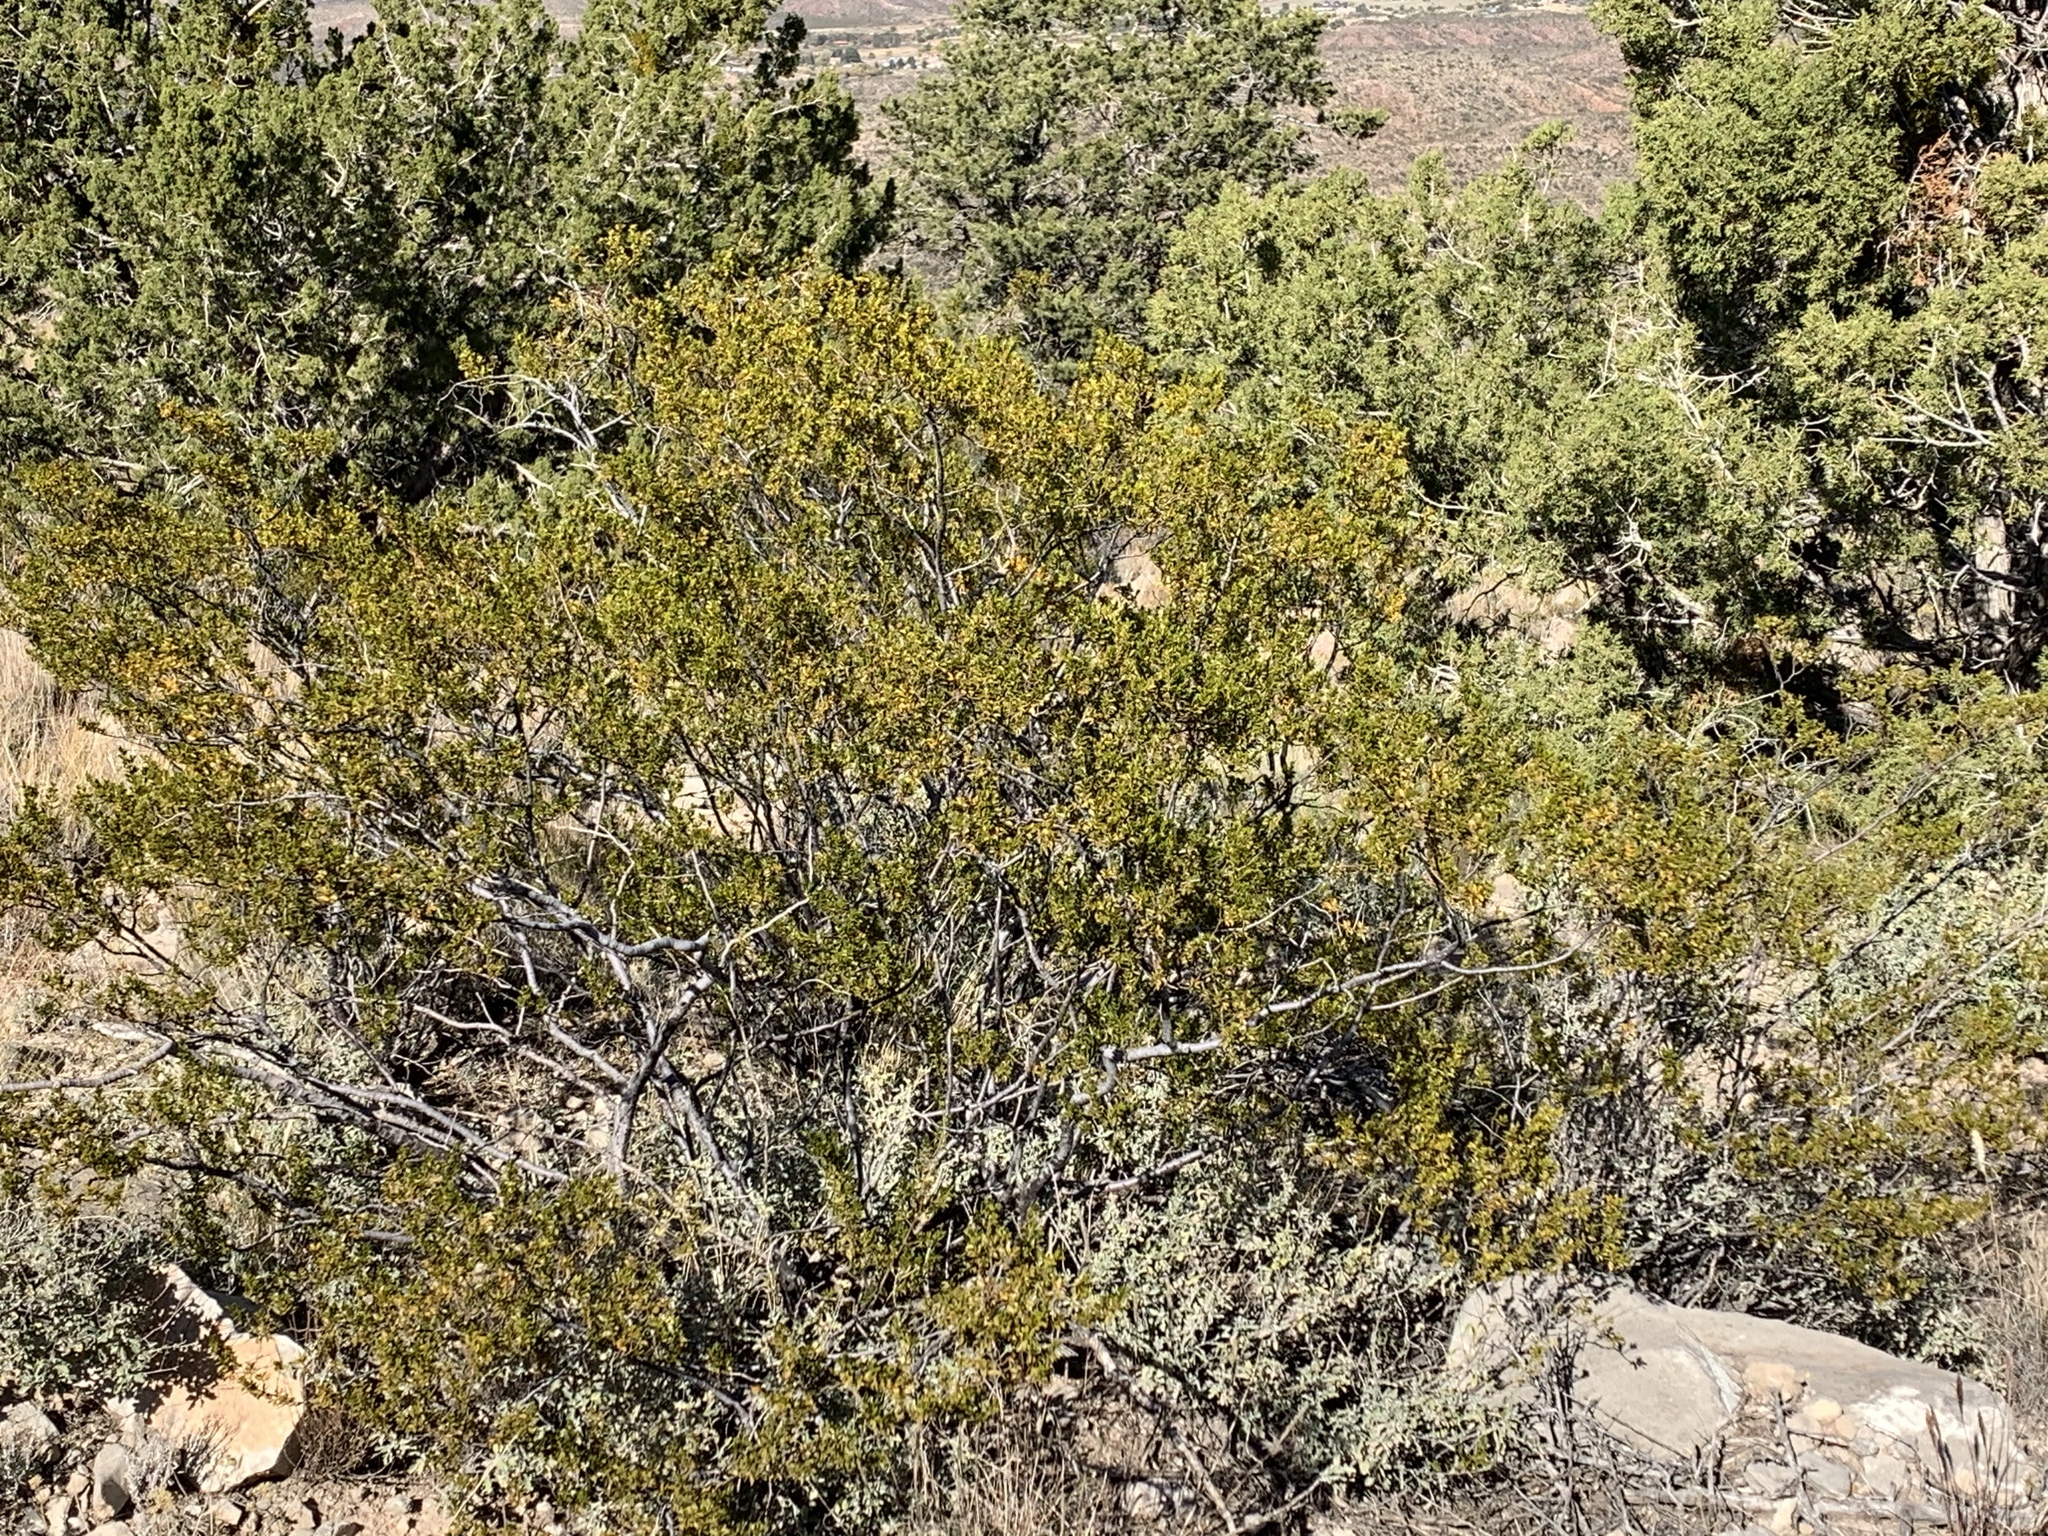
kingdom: Plantae
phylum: Tracheophyta
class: Magnoliopsida
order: Zygophyllales
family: Zygophyllaceae
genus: Larrea
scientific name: Larrea tridentata
